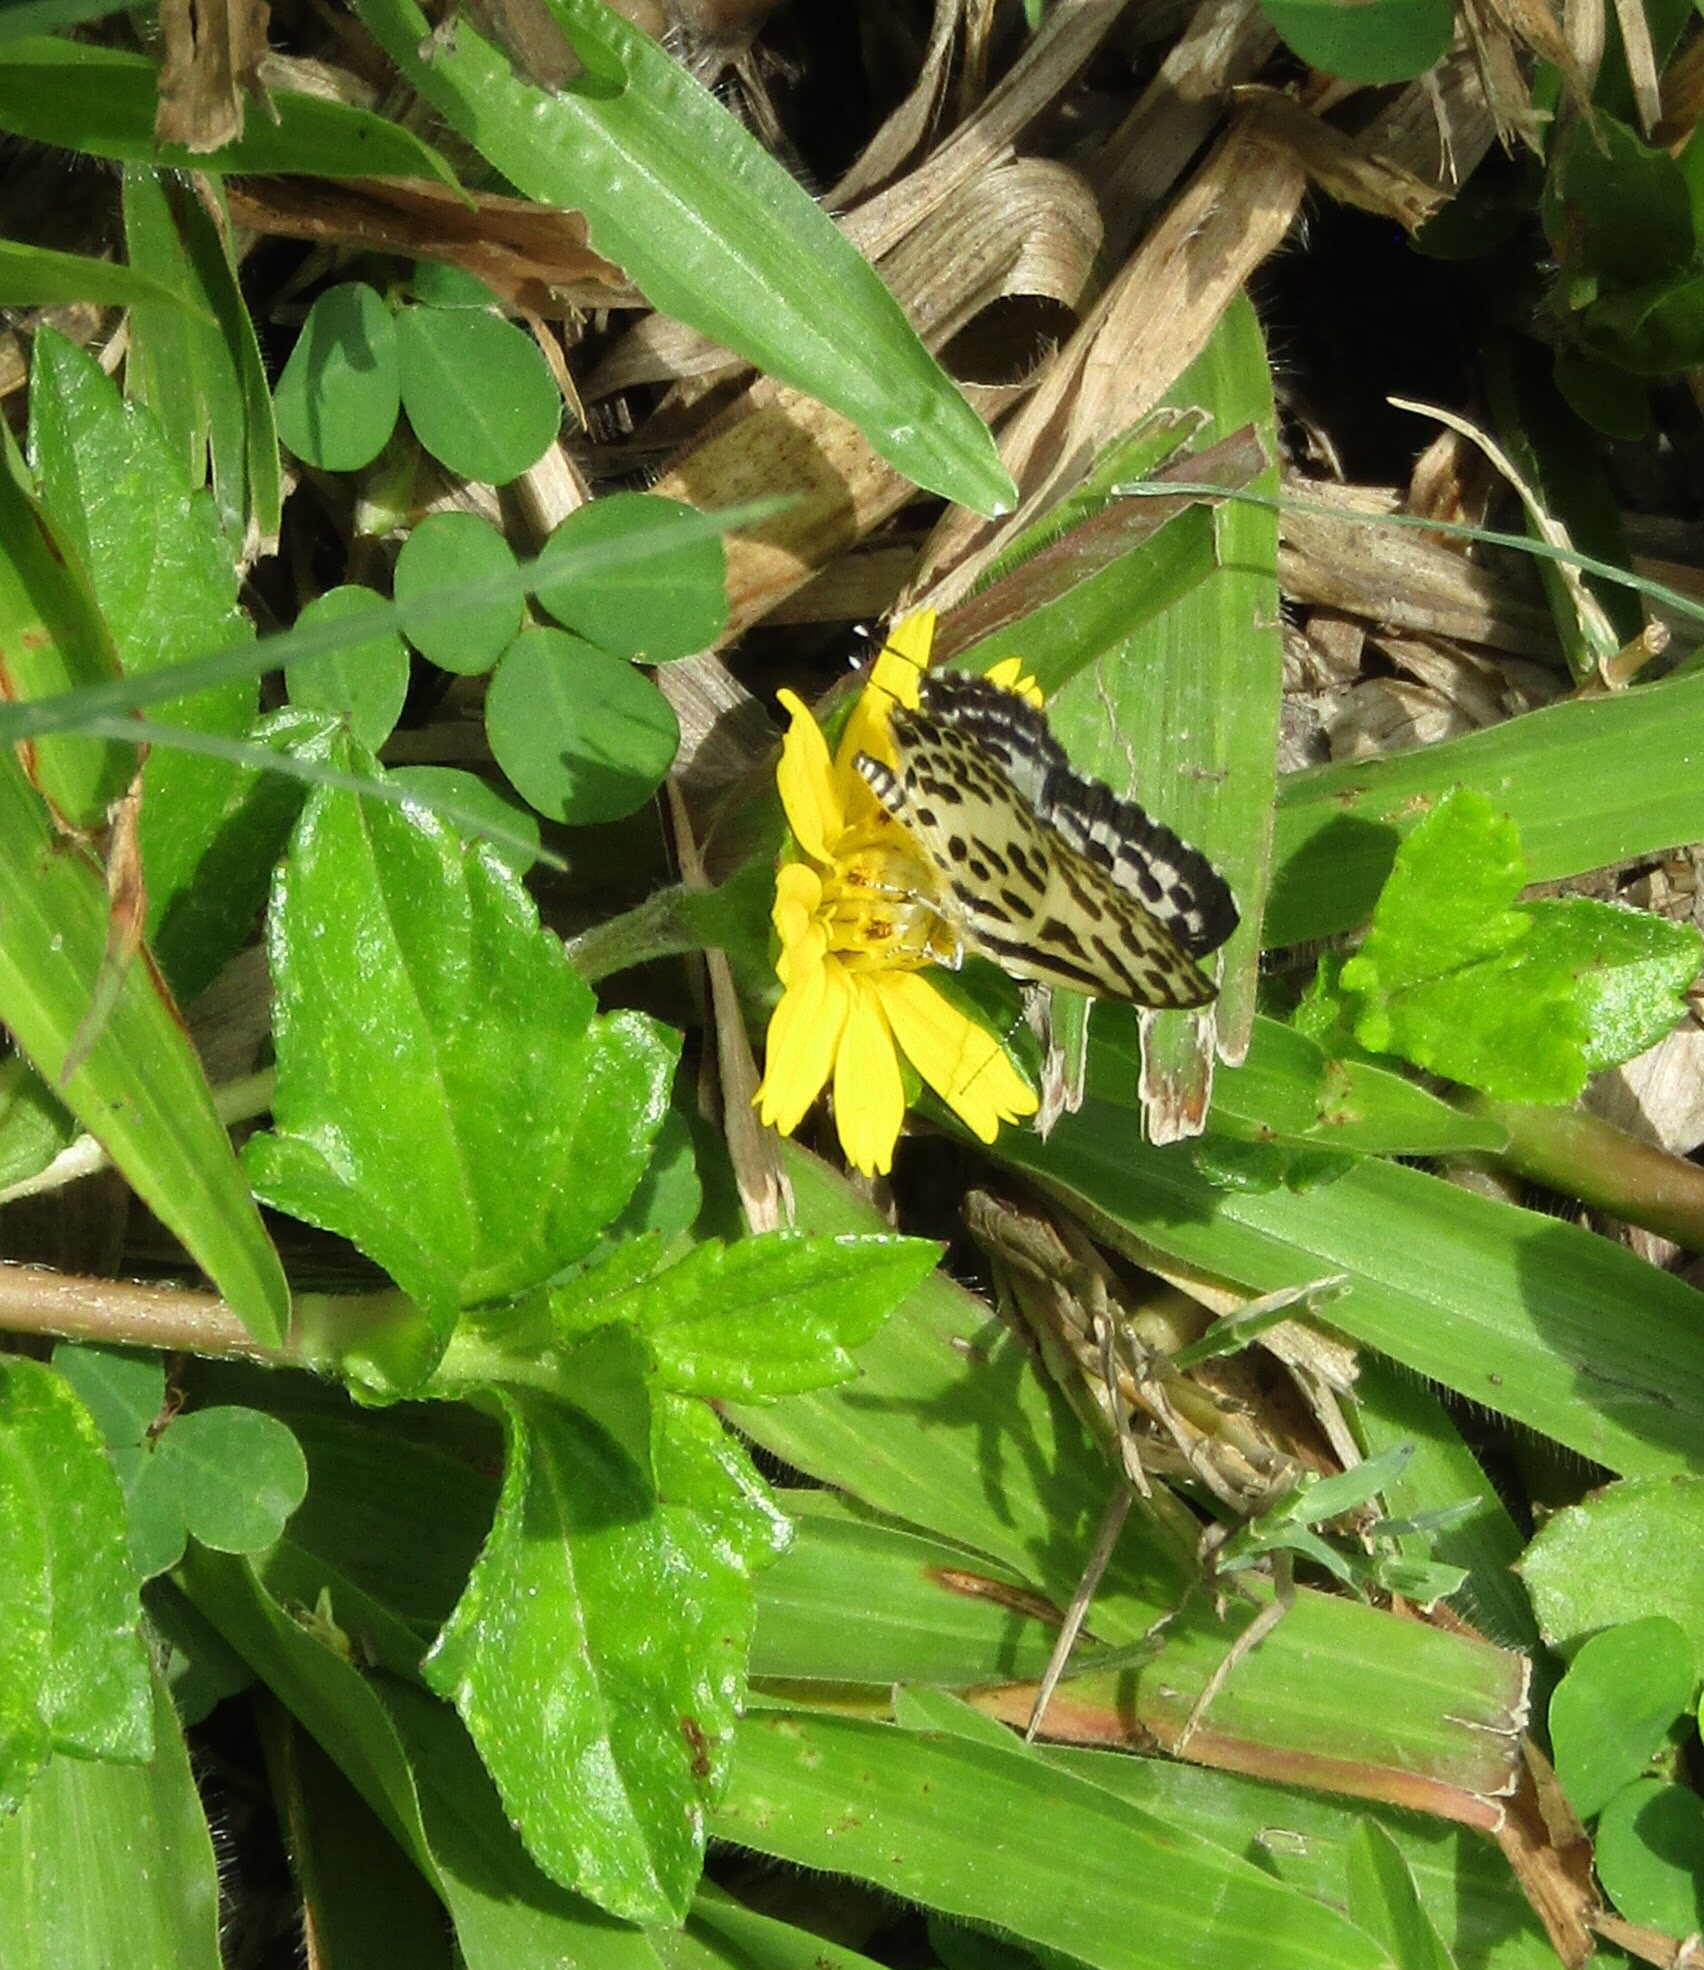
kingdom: Animalia
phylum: Arthropoda
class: Insecta
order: Lepidoptera
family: Lycaenidae
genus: Castalius
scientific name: Castalius rosimon
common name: Common pierrot
